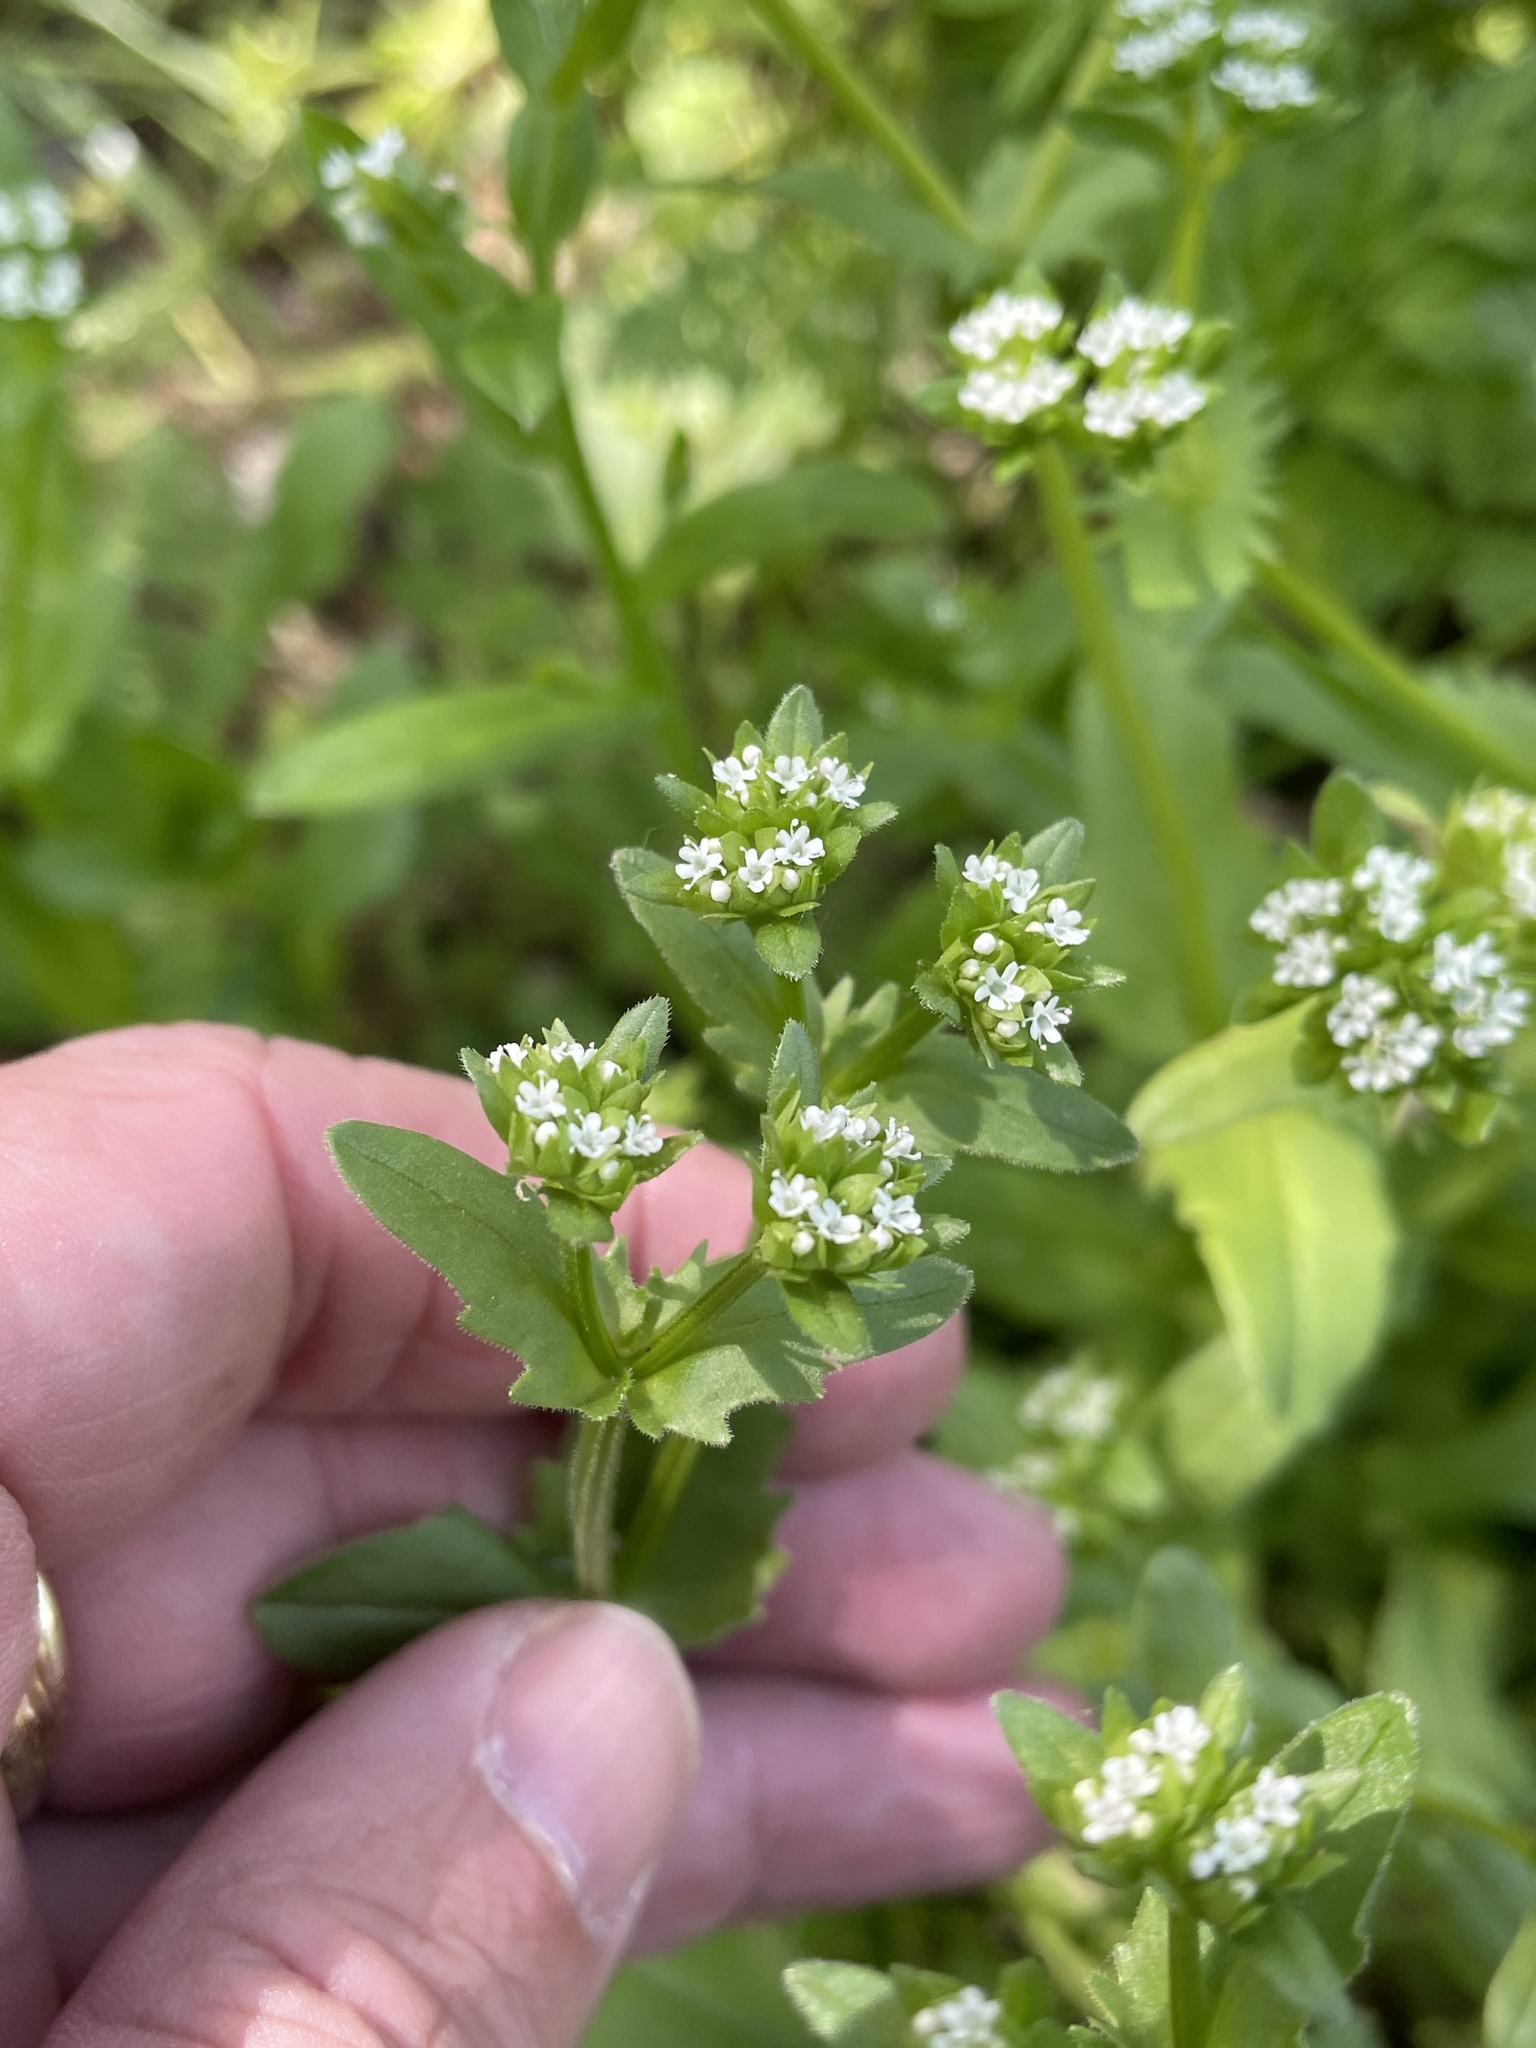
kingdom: Plantae
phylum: Tracheophyta
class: Magnoliopsida
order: Dipsacales
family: Caprifoliaceae
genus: Valerianella
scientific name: Valerianella radiata
